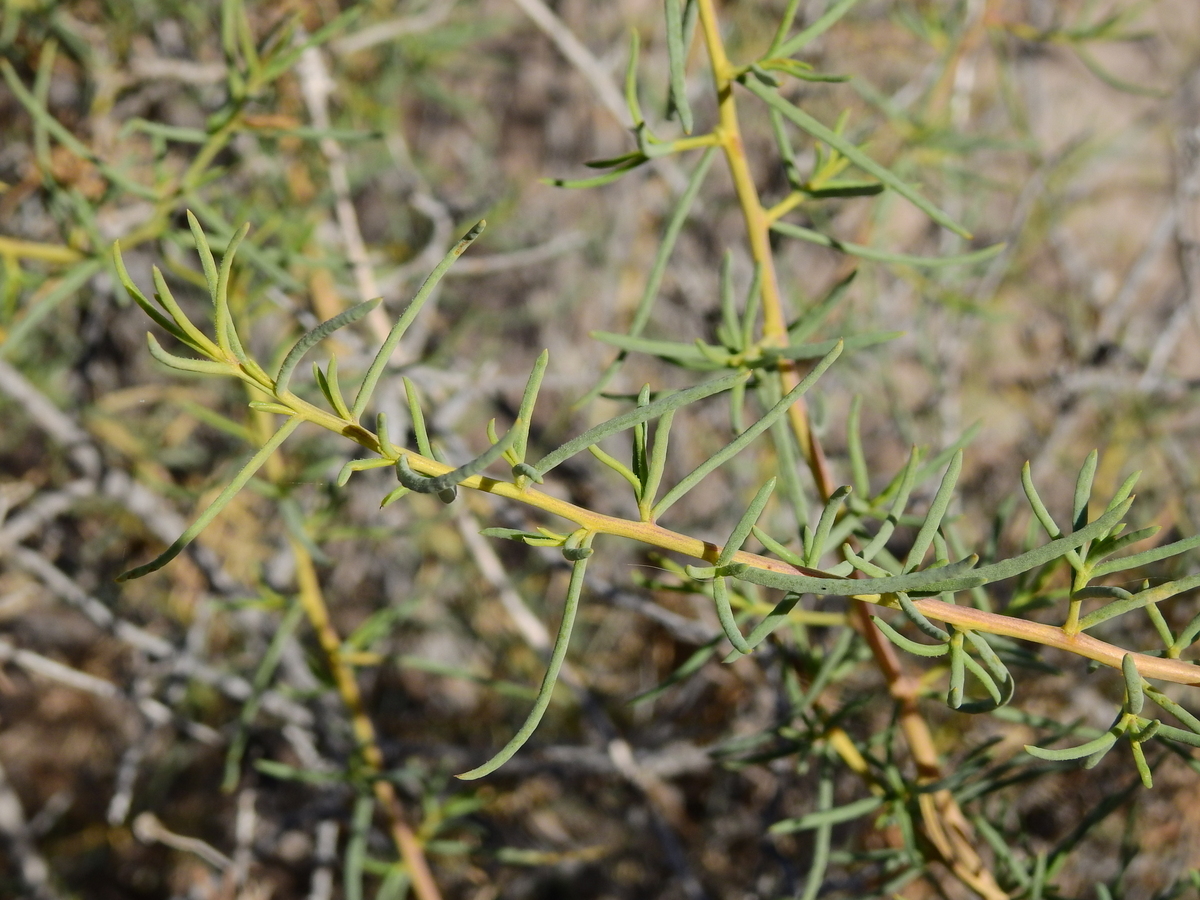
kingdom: Plantae
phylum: Tracheophyta
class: Magnoliopsida
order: Asterales
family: Asteraceae
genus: Senecio
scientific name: Senecio subulatus
